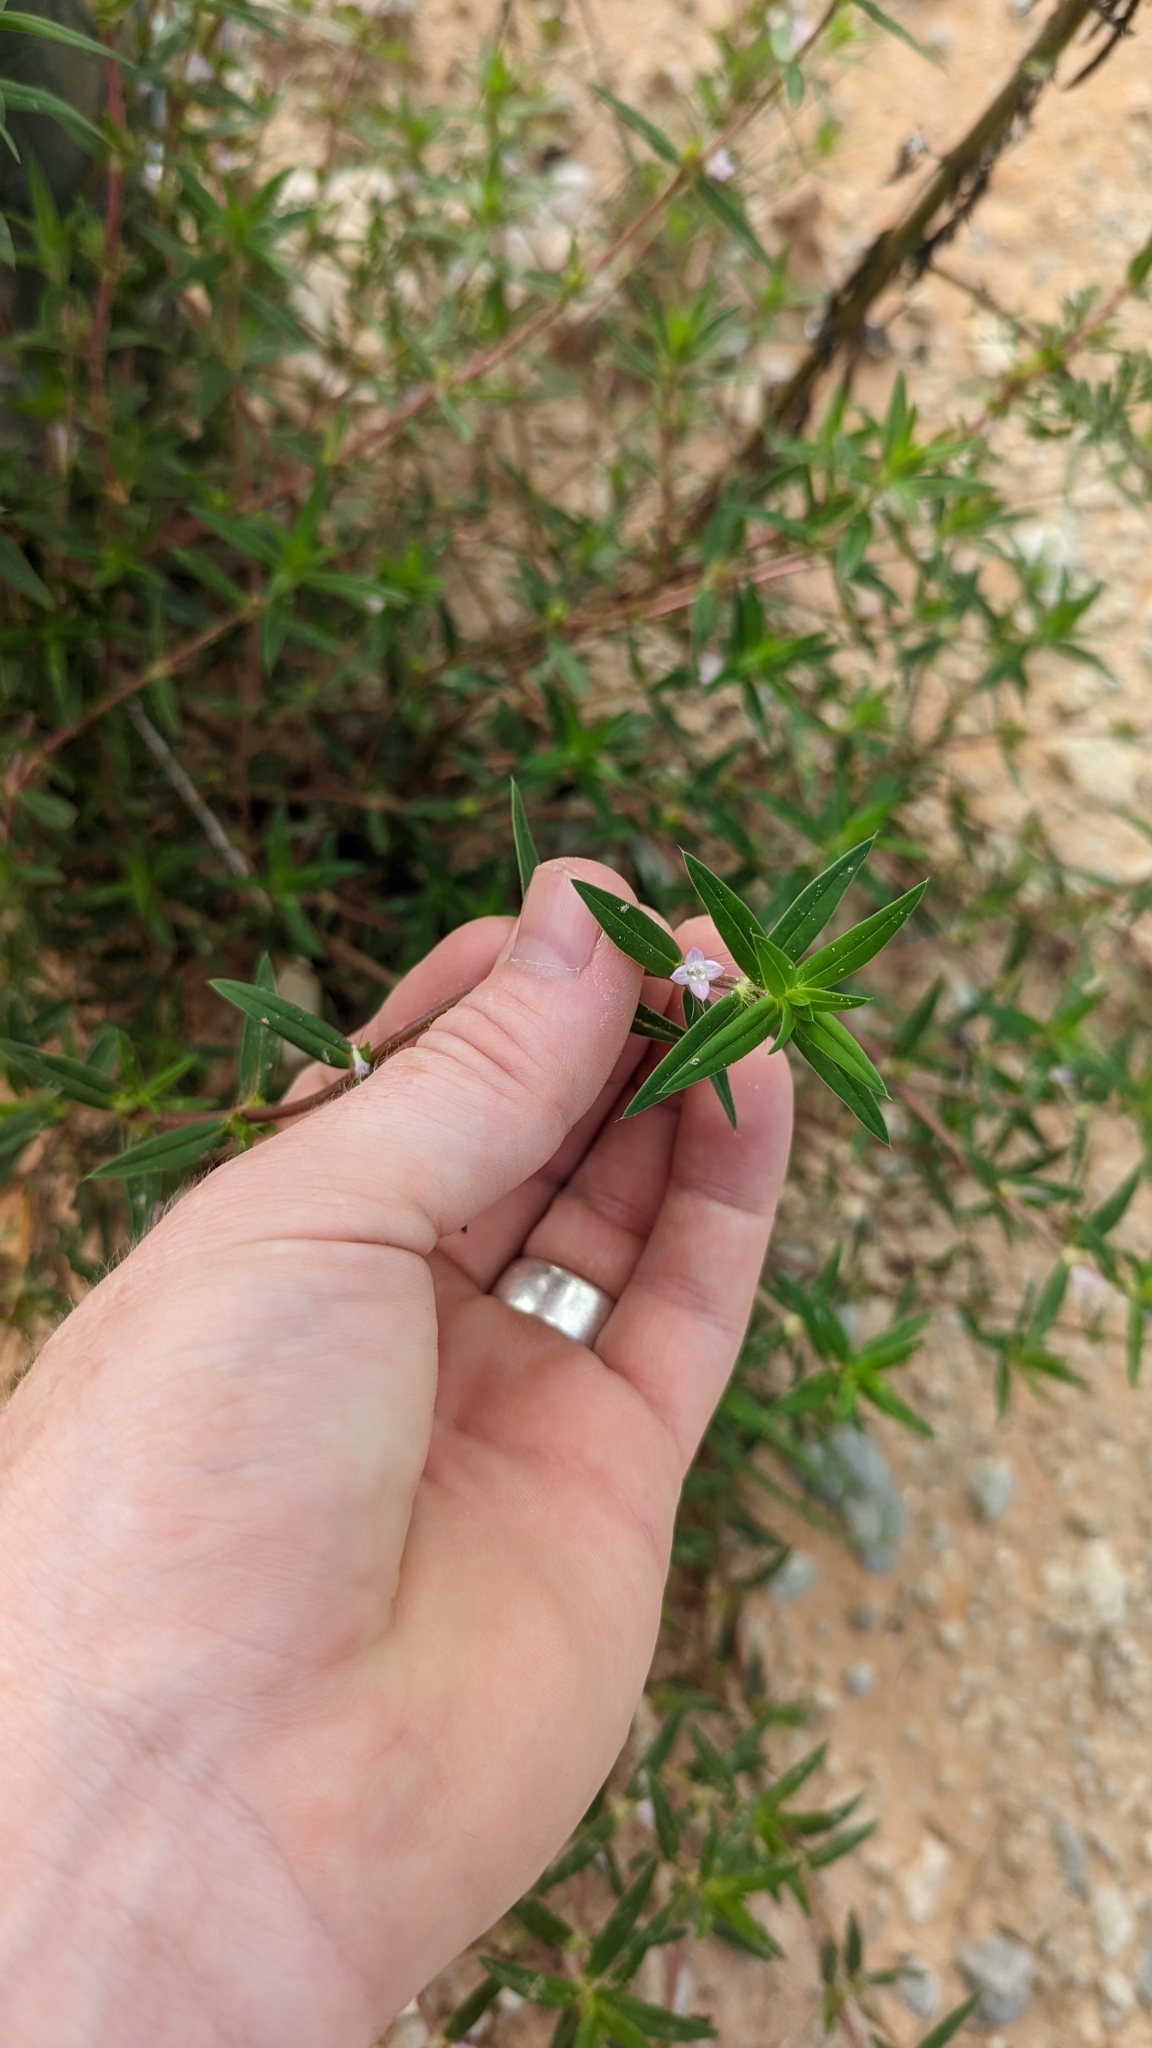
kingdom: Plantae
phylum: Tracheophyta
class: Magnoliopsida
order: Gentianales
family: Rubiaceae
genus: Hexasepalum
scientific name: Hexasepalum teres
